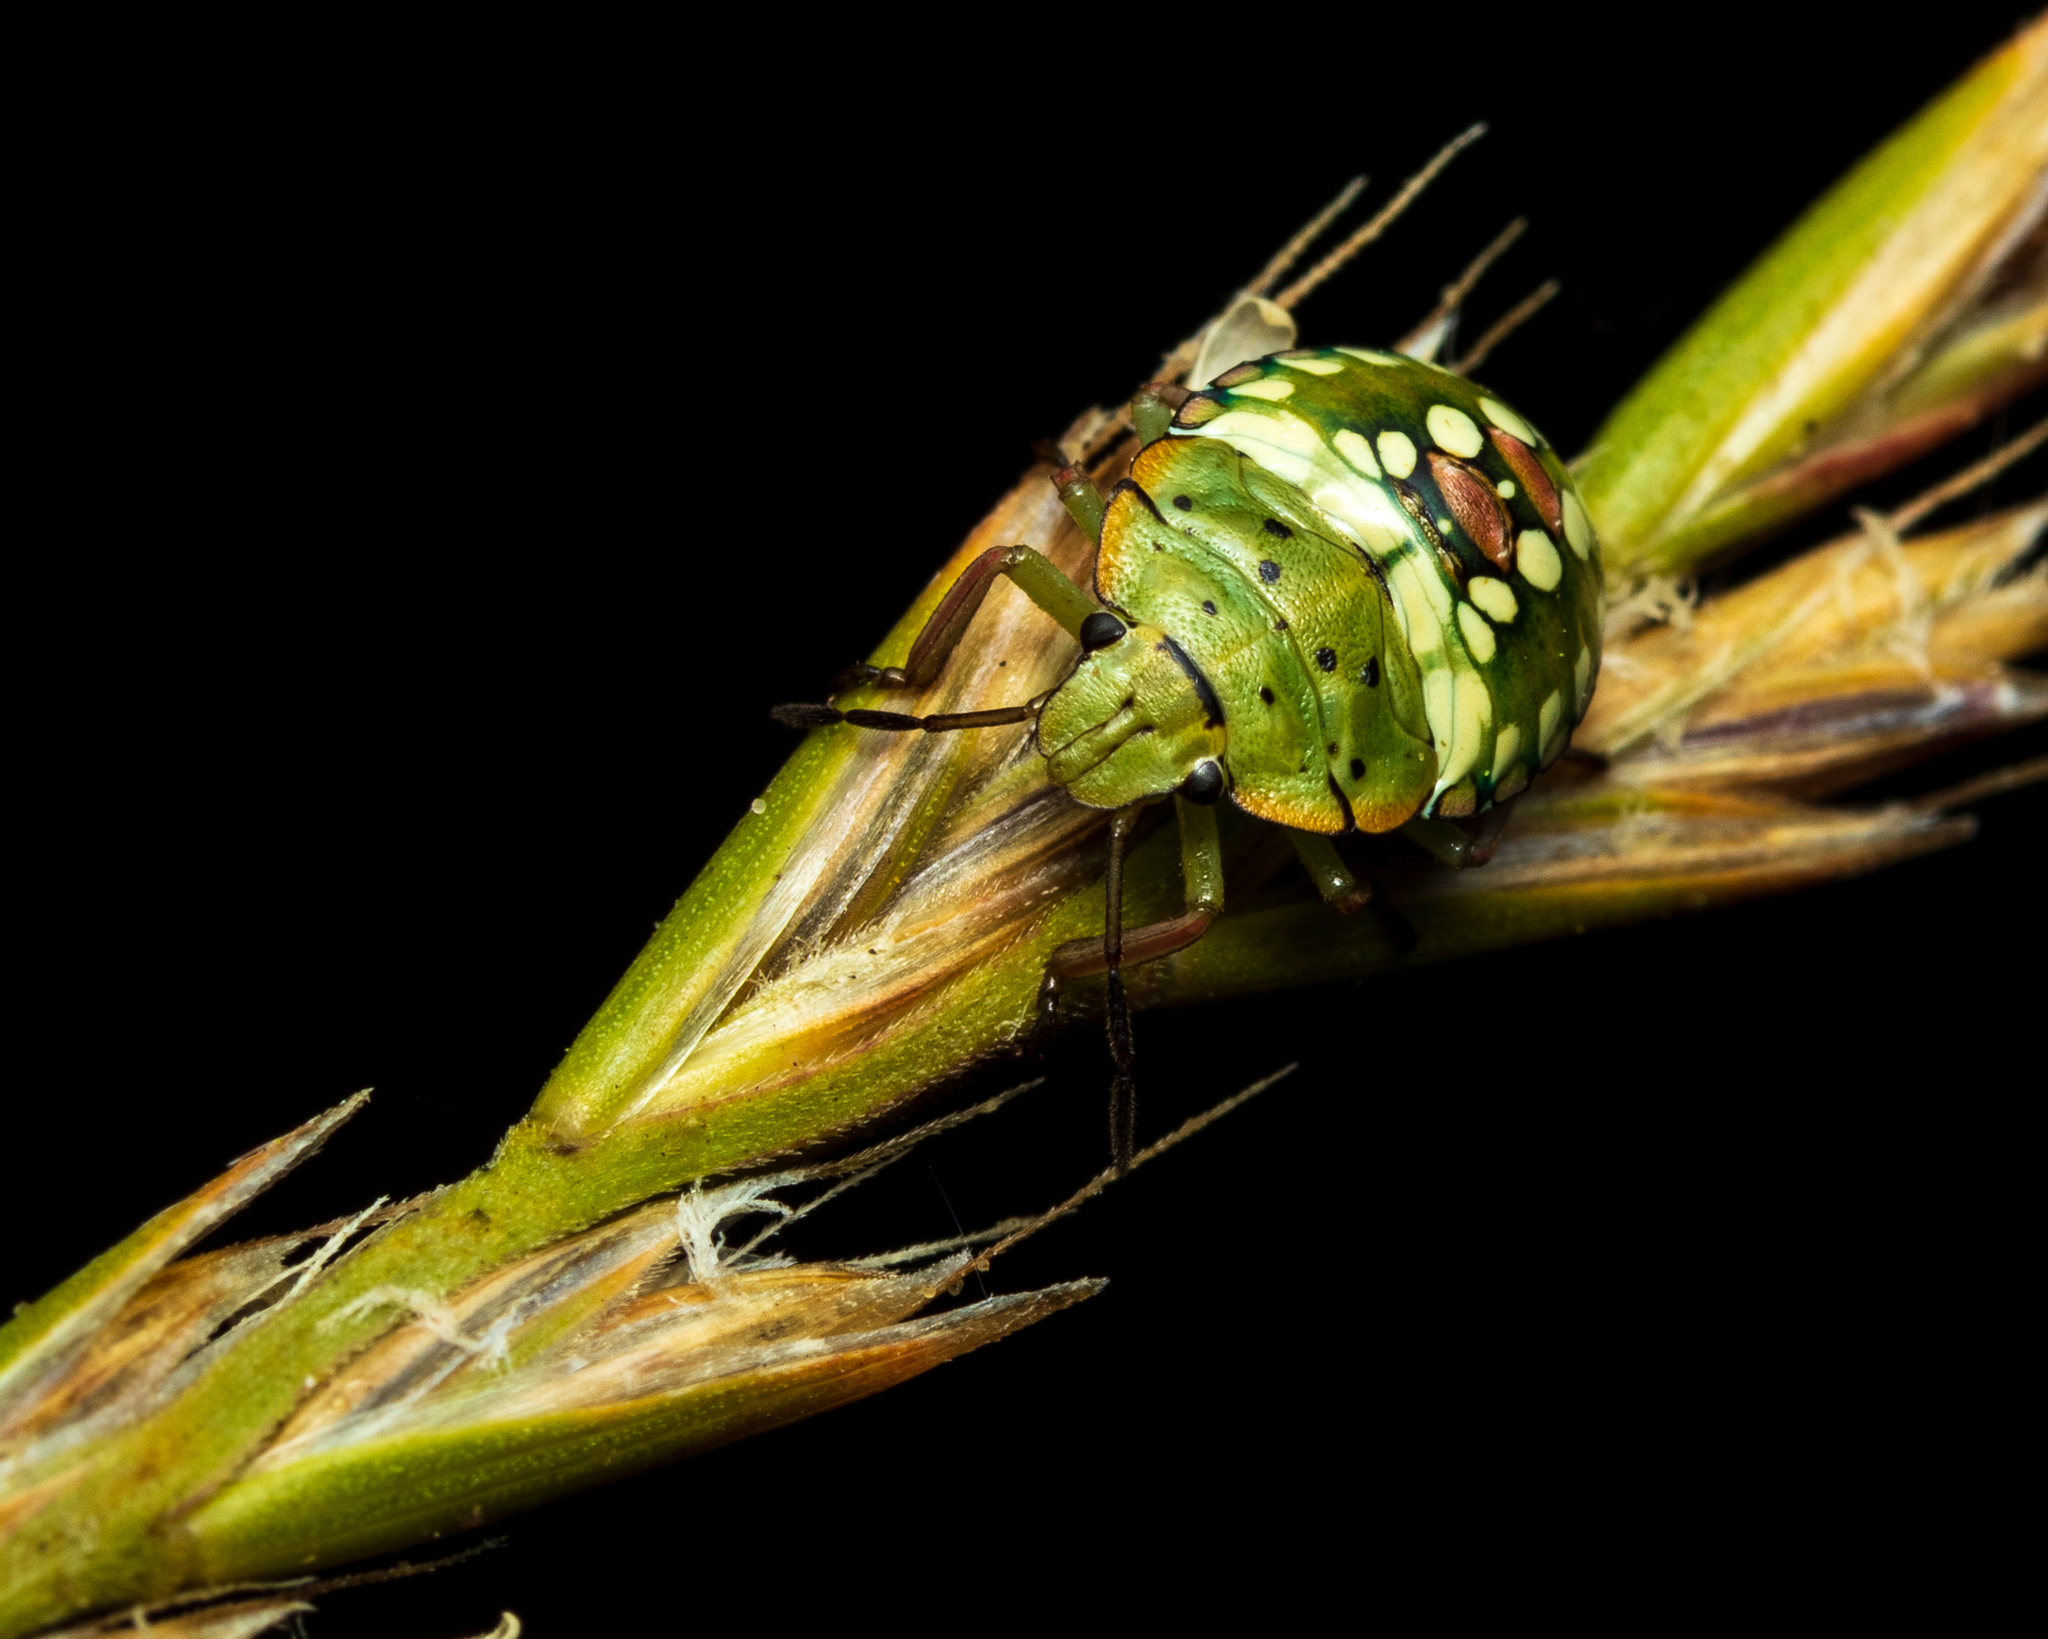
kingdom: Animalia
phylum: Arthropoda
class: Insecta
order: Hemiptera
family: Pentatomidae
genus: Nezara
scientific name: Nezara viridula
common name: Southern green stink bug
